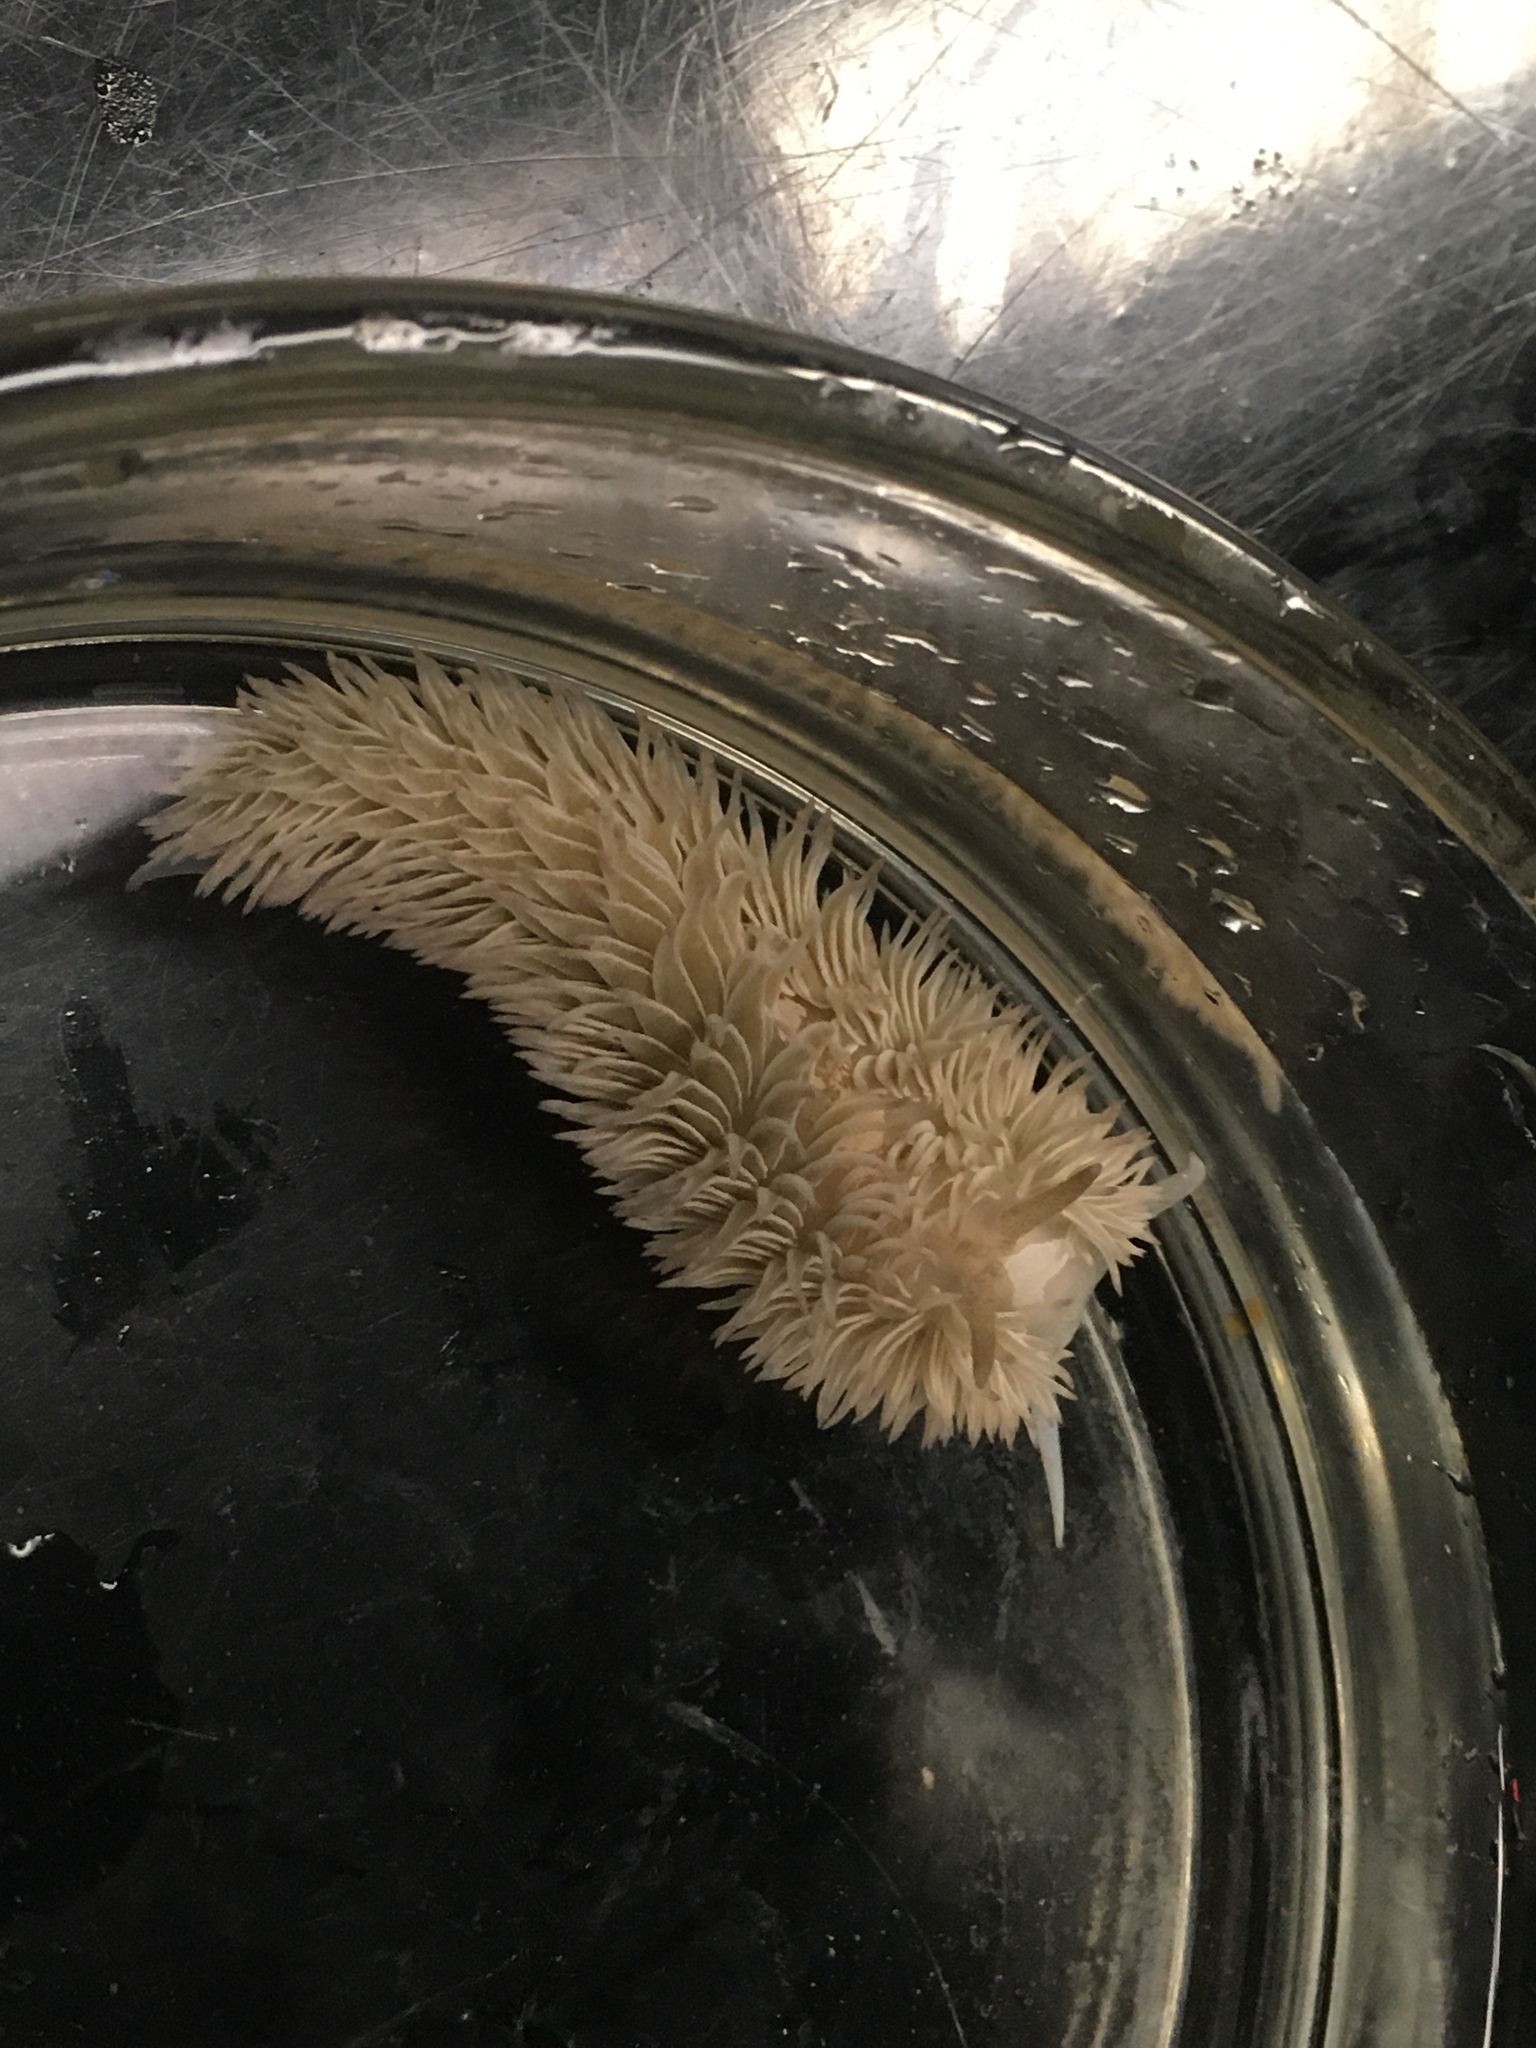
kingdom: Animalia
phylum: Mollusca
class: Gastropoda
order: Nudibranchia
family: Aeolidiidae
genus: Aeolidia
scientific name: Aeolidia loui
